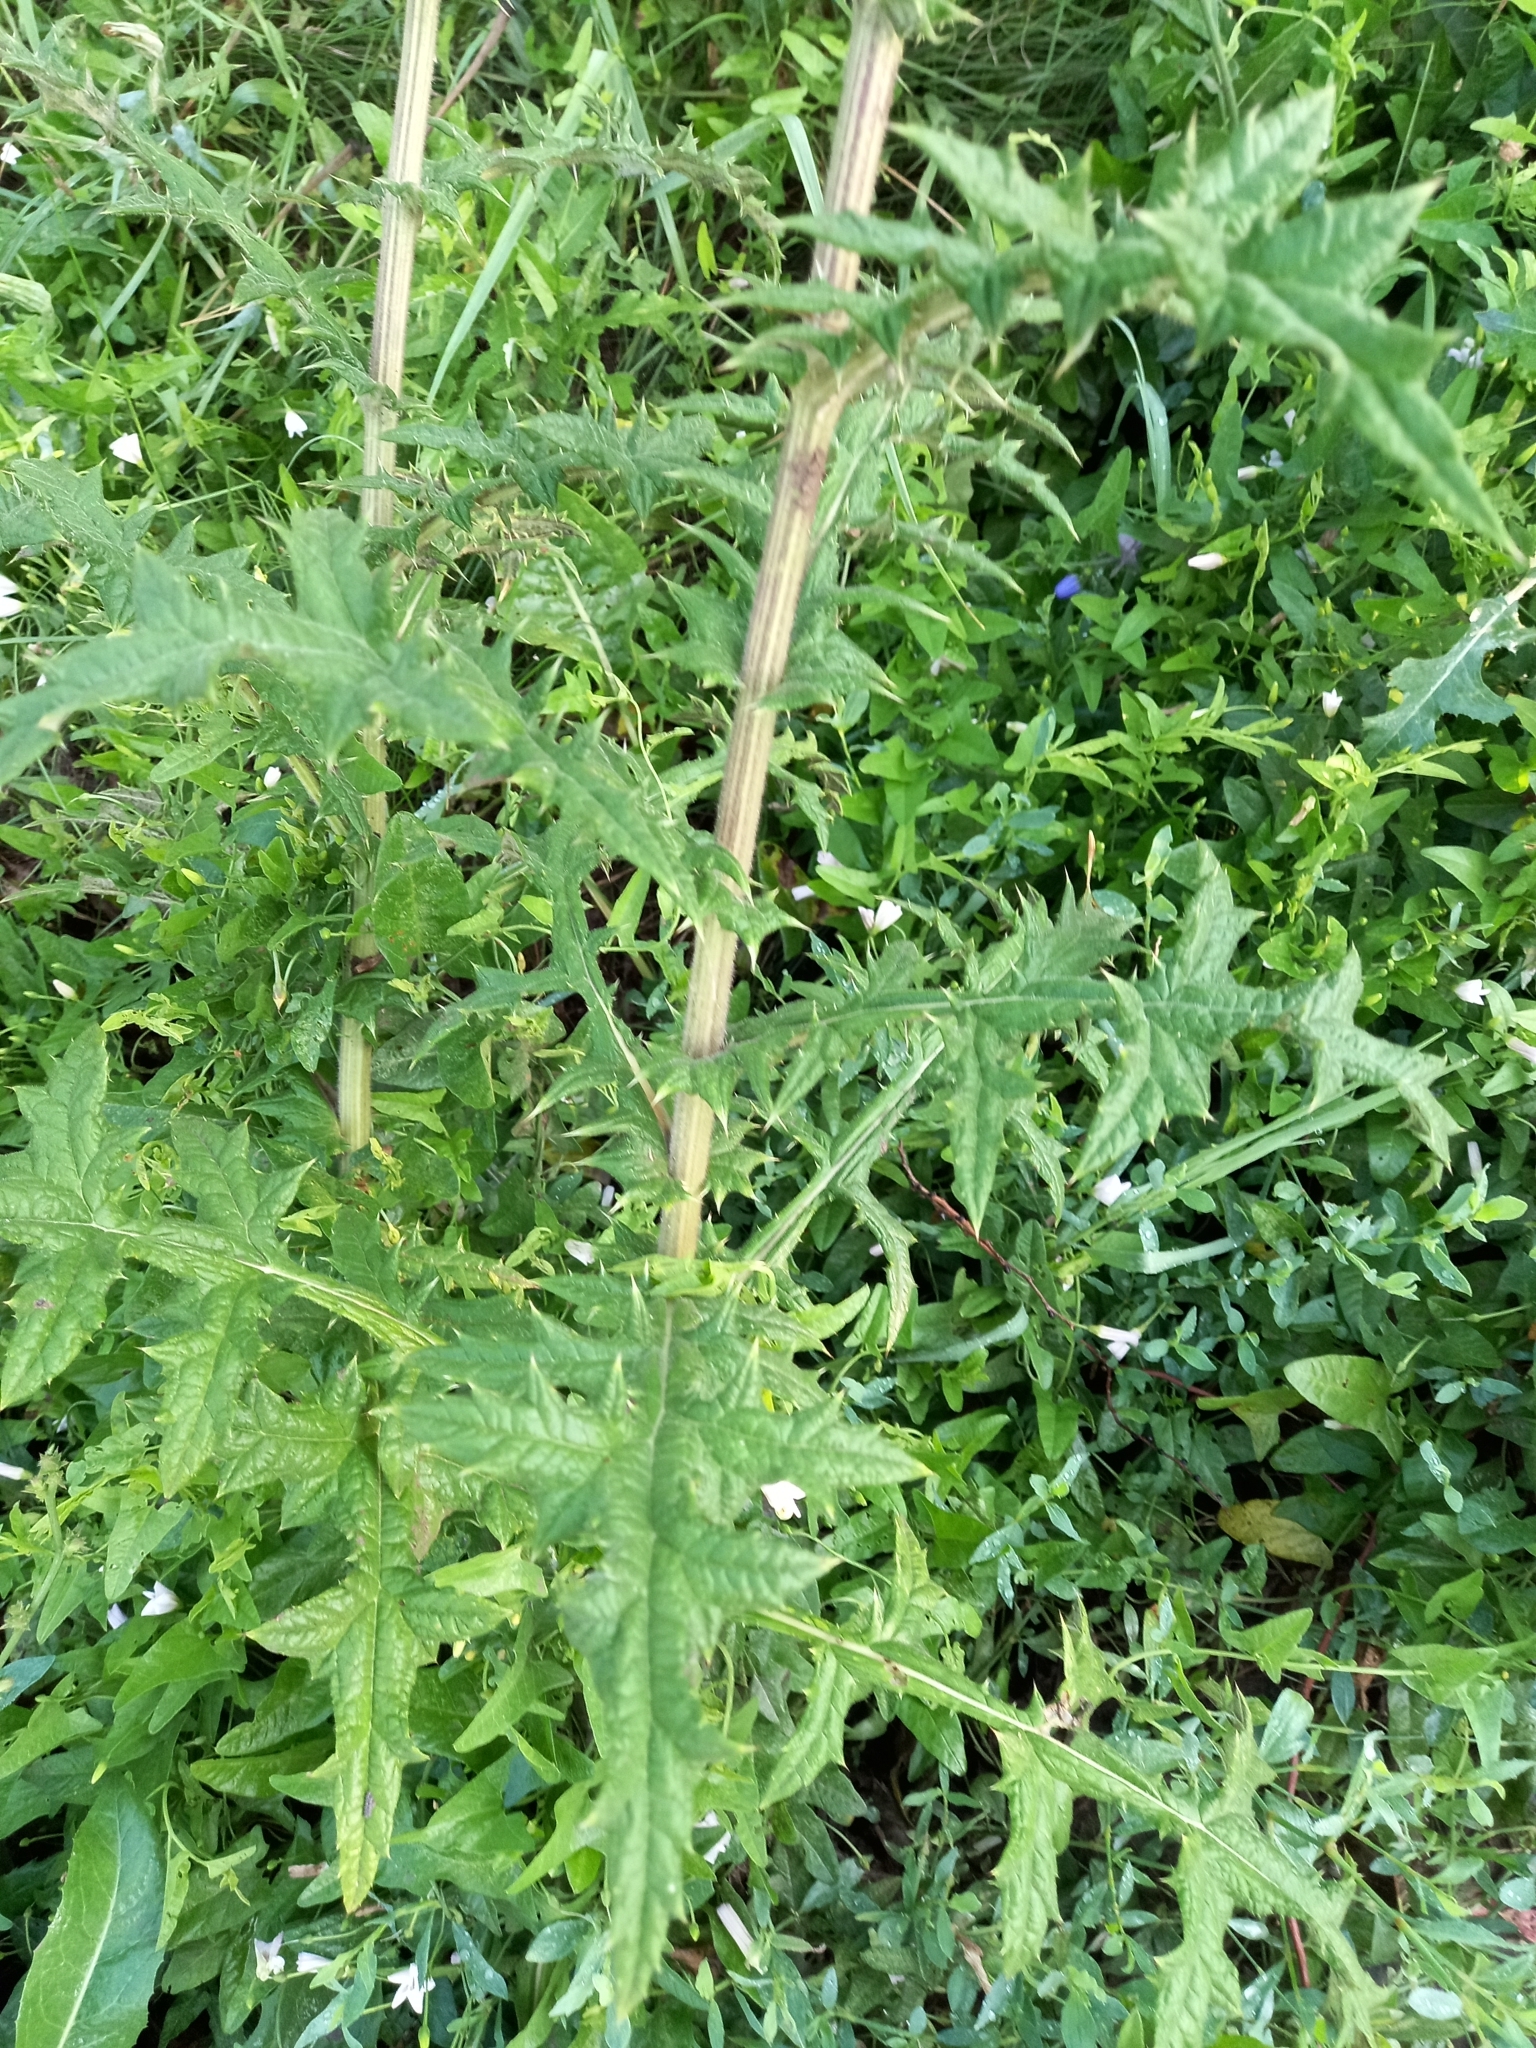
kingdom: Plantae
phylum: Tracheophyta
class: Magnoliopsida
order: Asterales
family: Asteraceae
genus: Echinops
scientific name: Echinops sphaerocephalus
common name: Glandular globe-thistle
